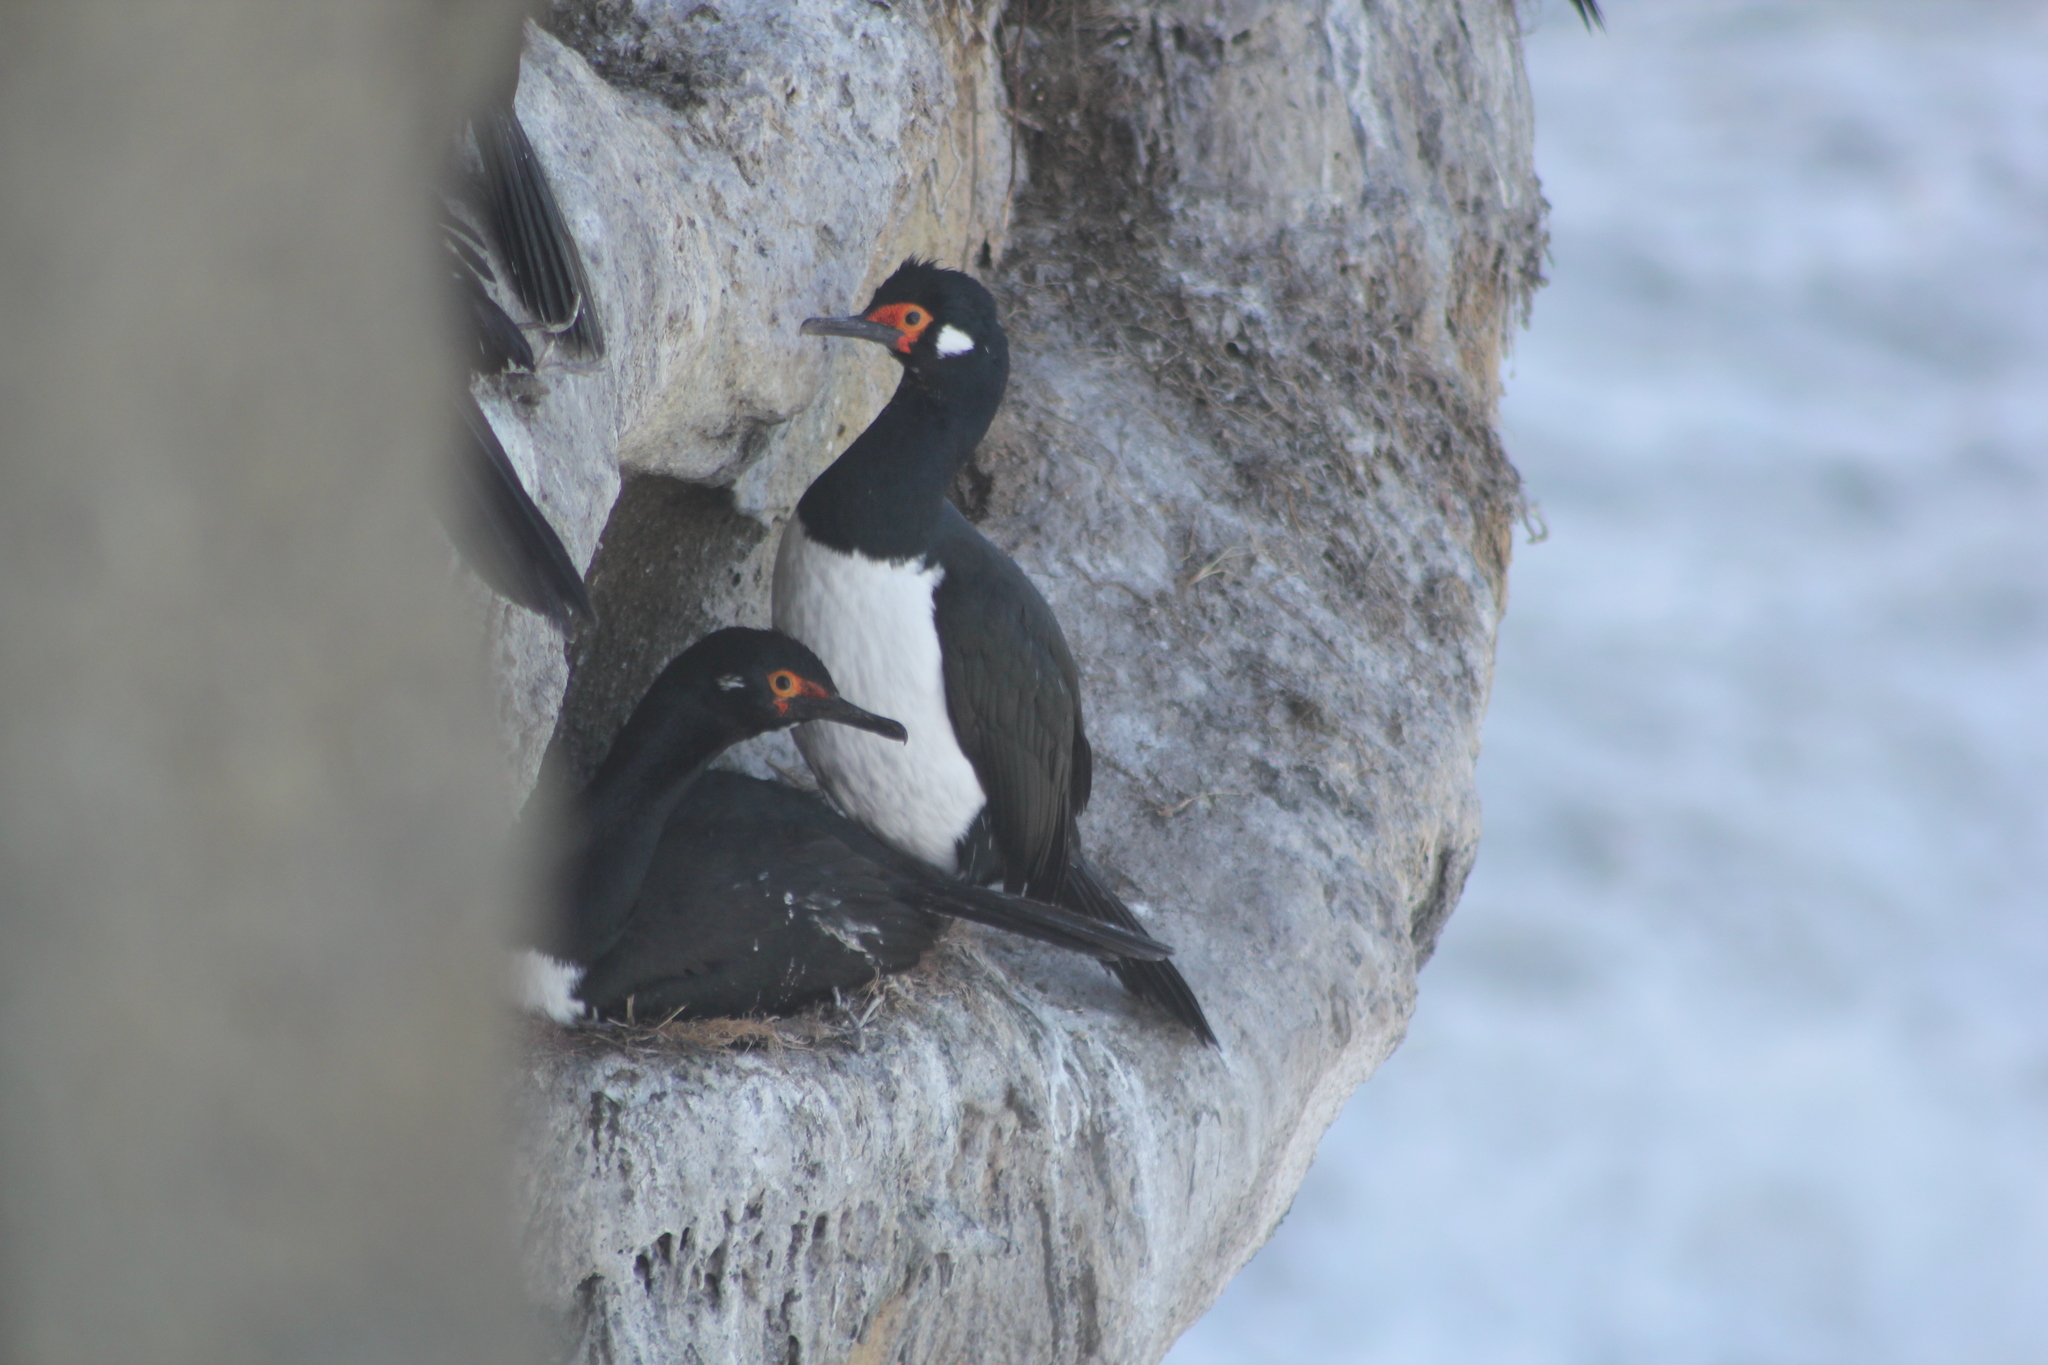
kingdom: Animalia
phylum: Chordata
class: Aves
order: Suliformes
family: Phalacrocoracidae
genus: Phalacrocorax
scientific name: Phalacrocorax magellanicus
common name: Rock shag
